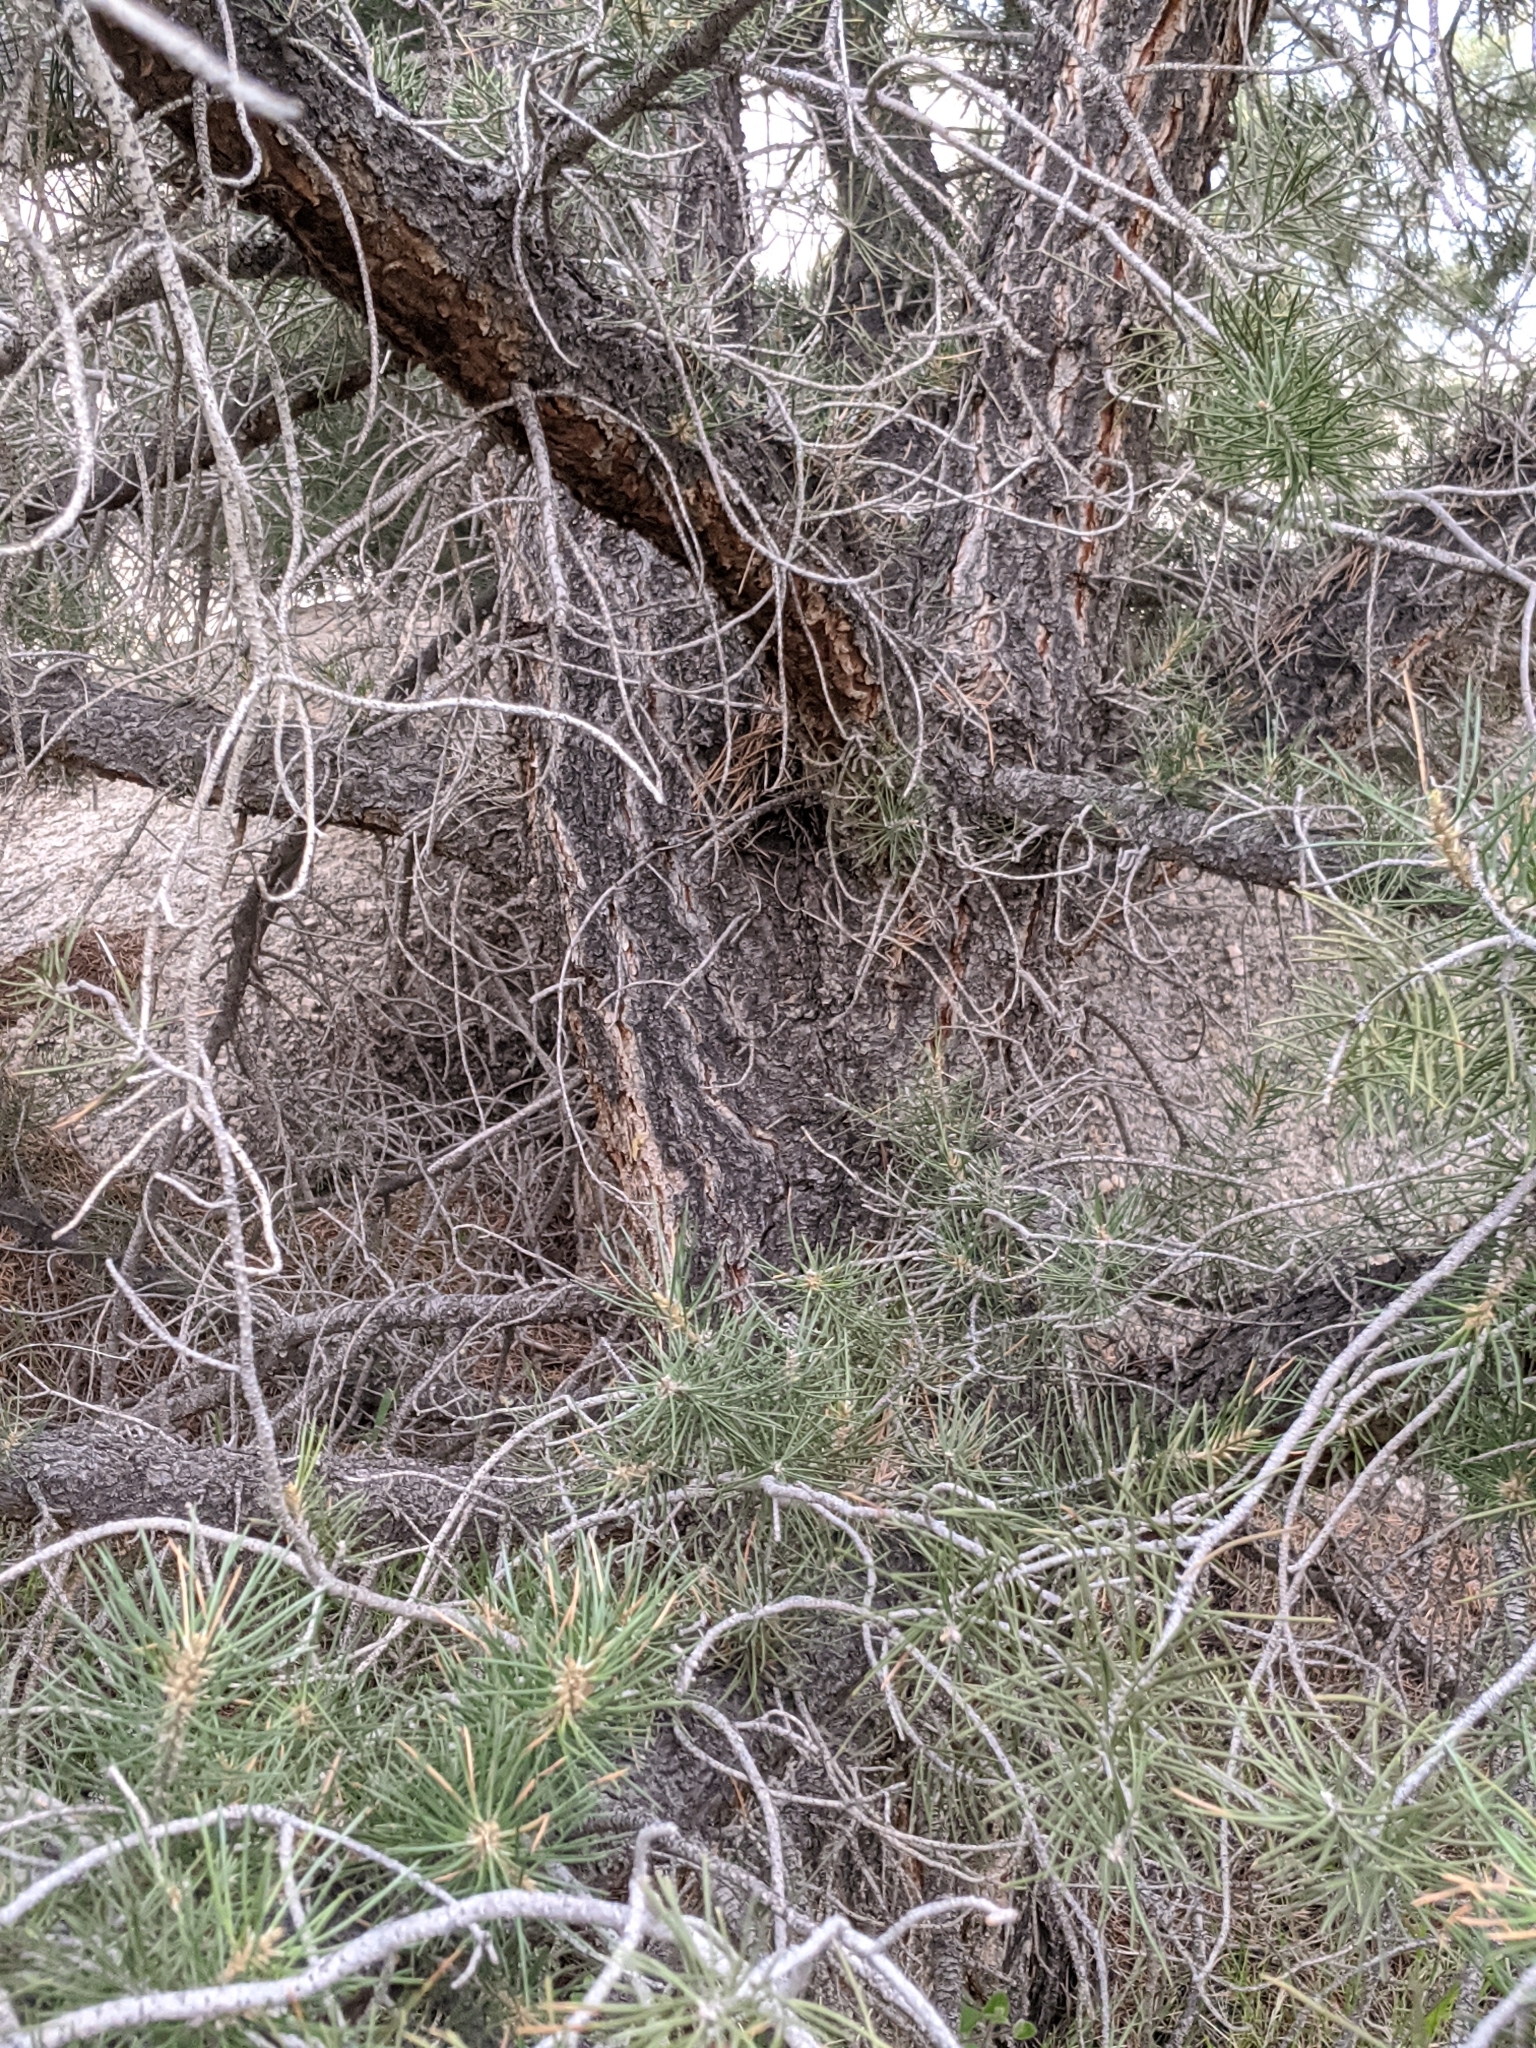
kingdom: Plantae
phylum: Tracheophyta
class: Pinopsida
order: Pinales
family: Pinaceae
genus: Pinus
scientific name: Pinus monophylla
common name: One-leaved nut pine
